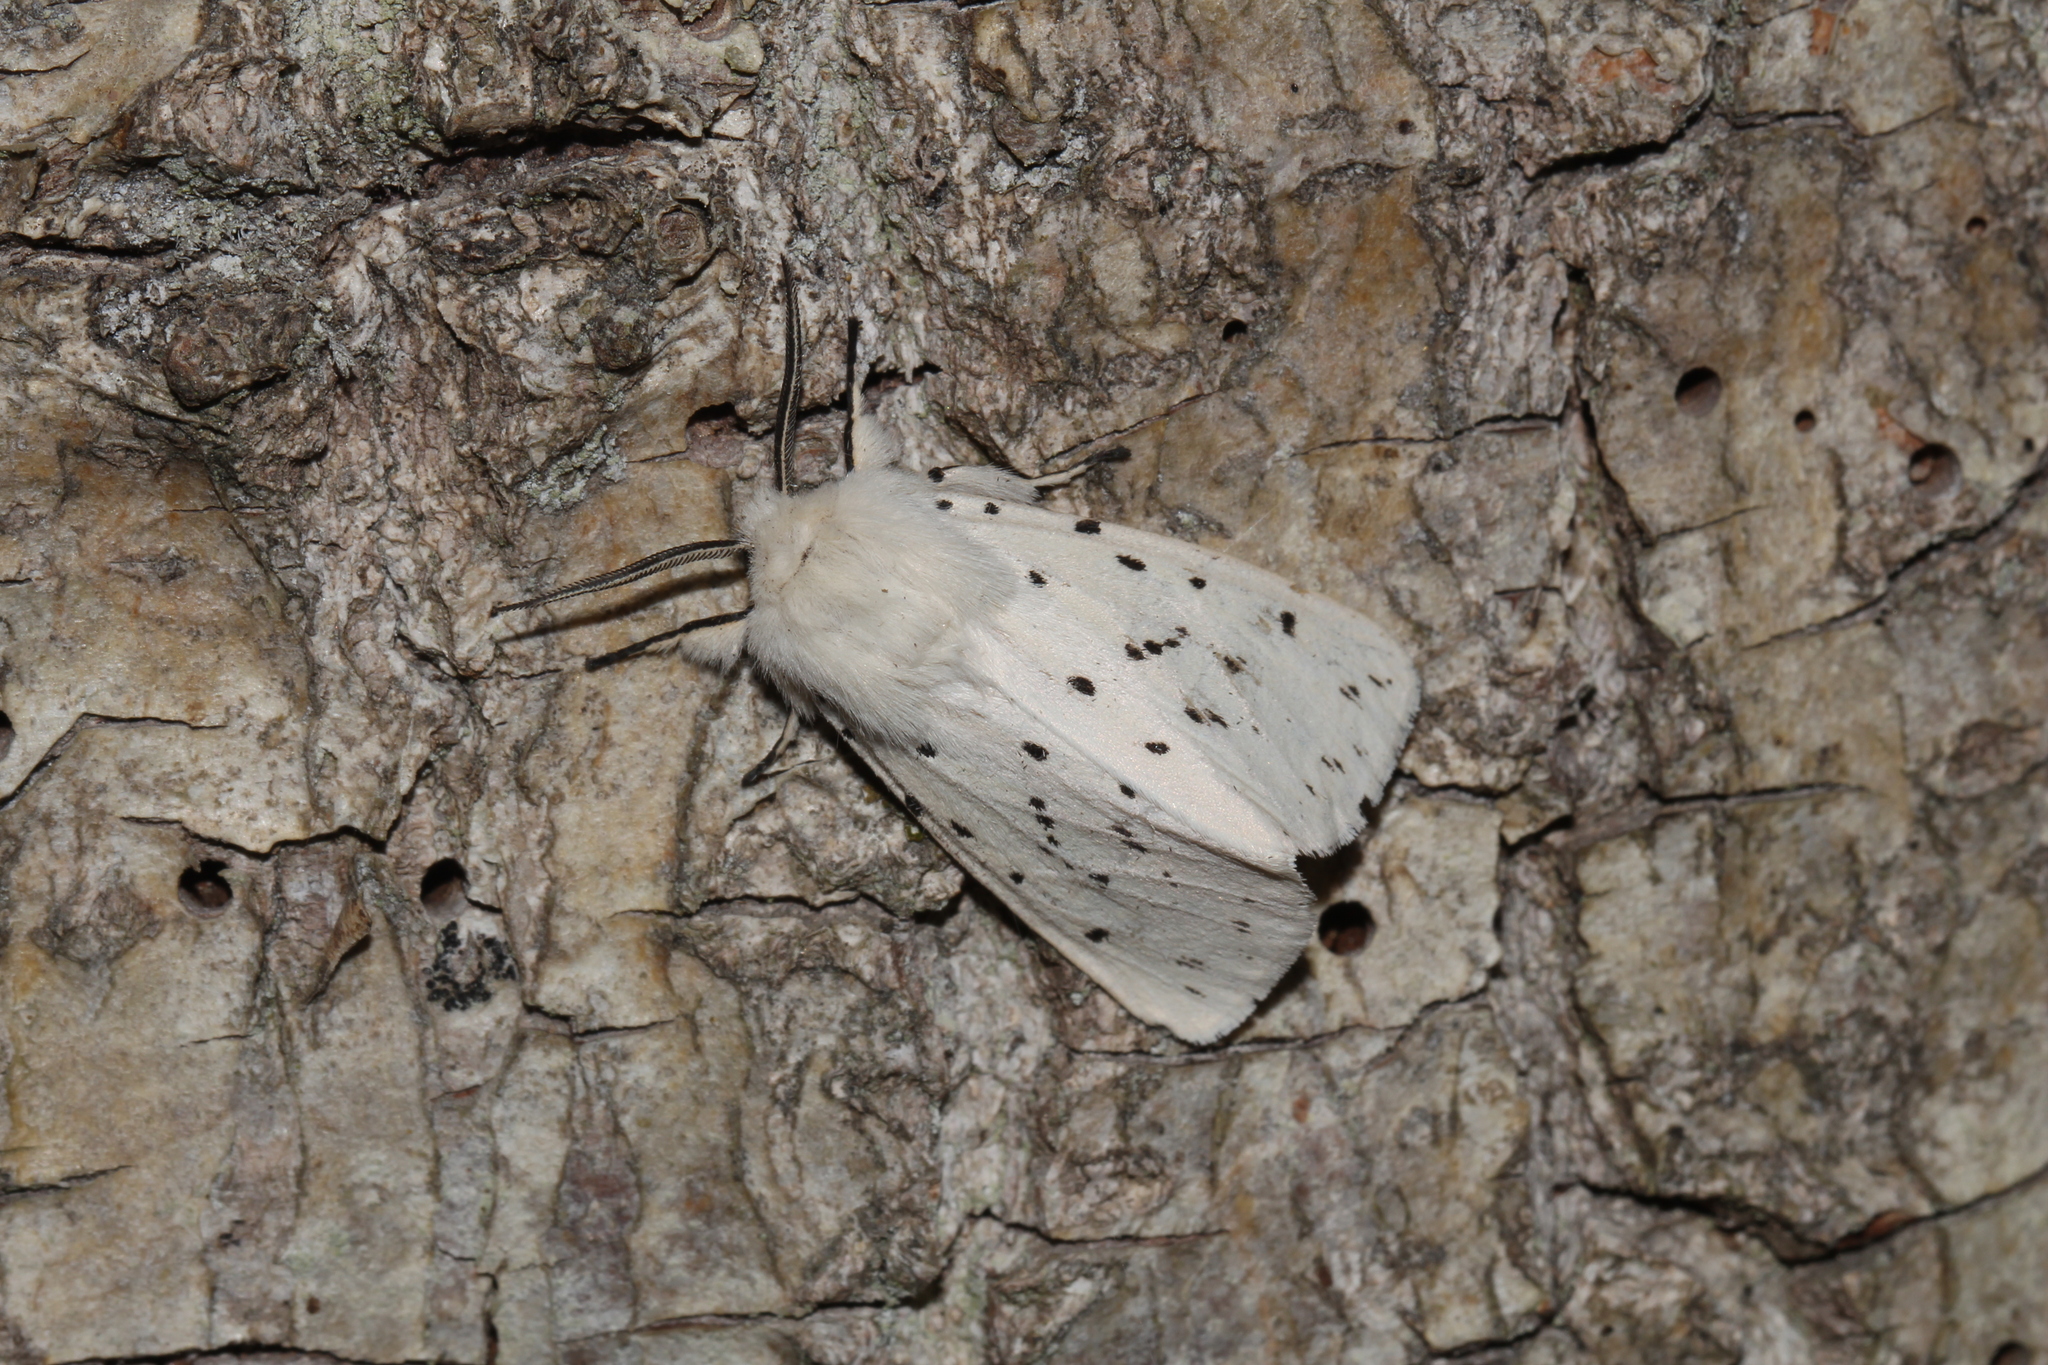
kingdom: Animalia
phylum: Arthropoda
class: Insecta
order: Lepidoptera
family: Erebidae
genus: Spilosoma
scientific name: Spilosoma lubricipeda
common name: White ermine
